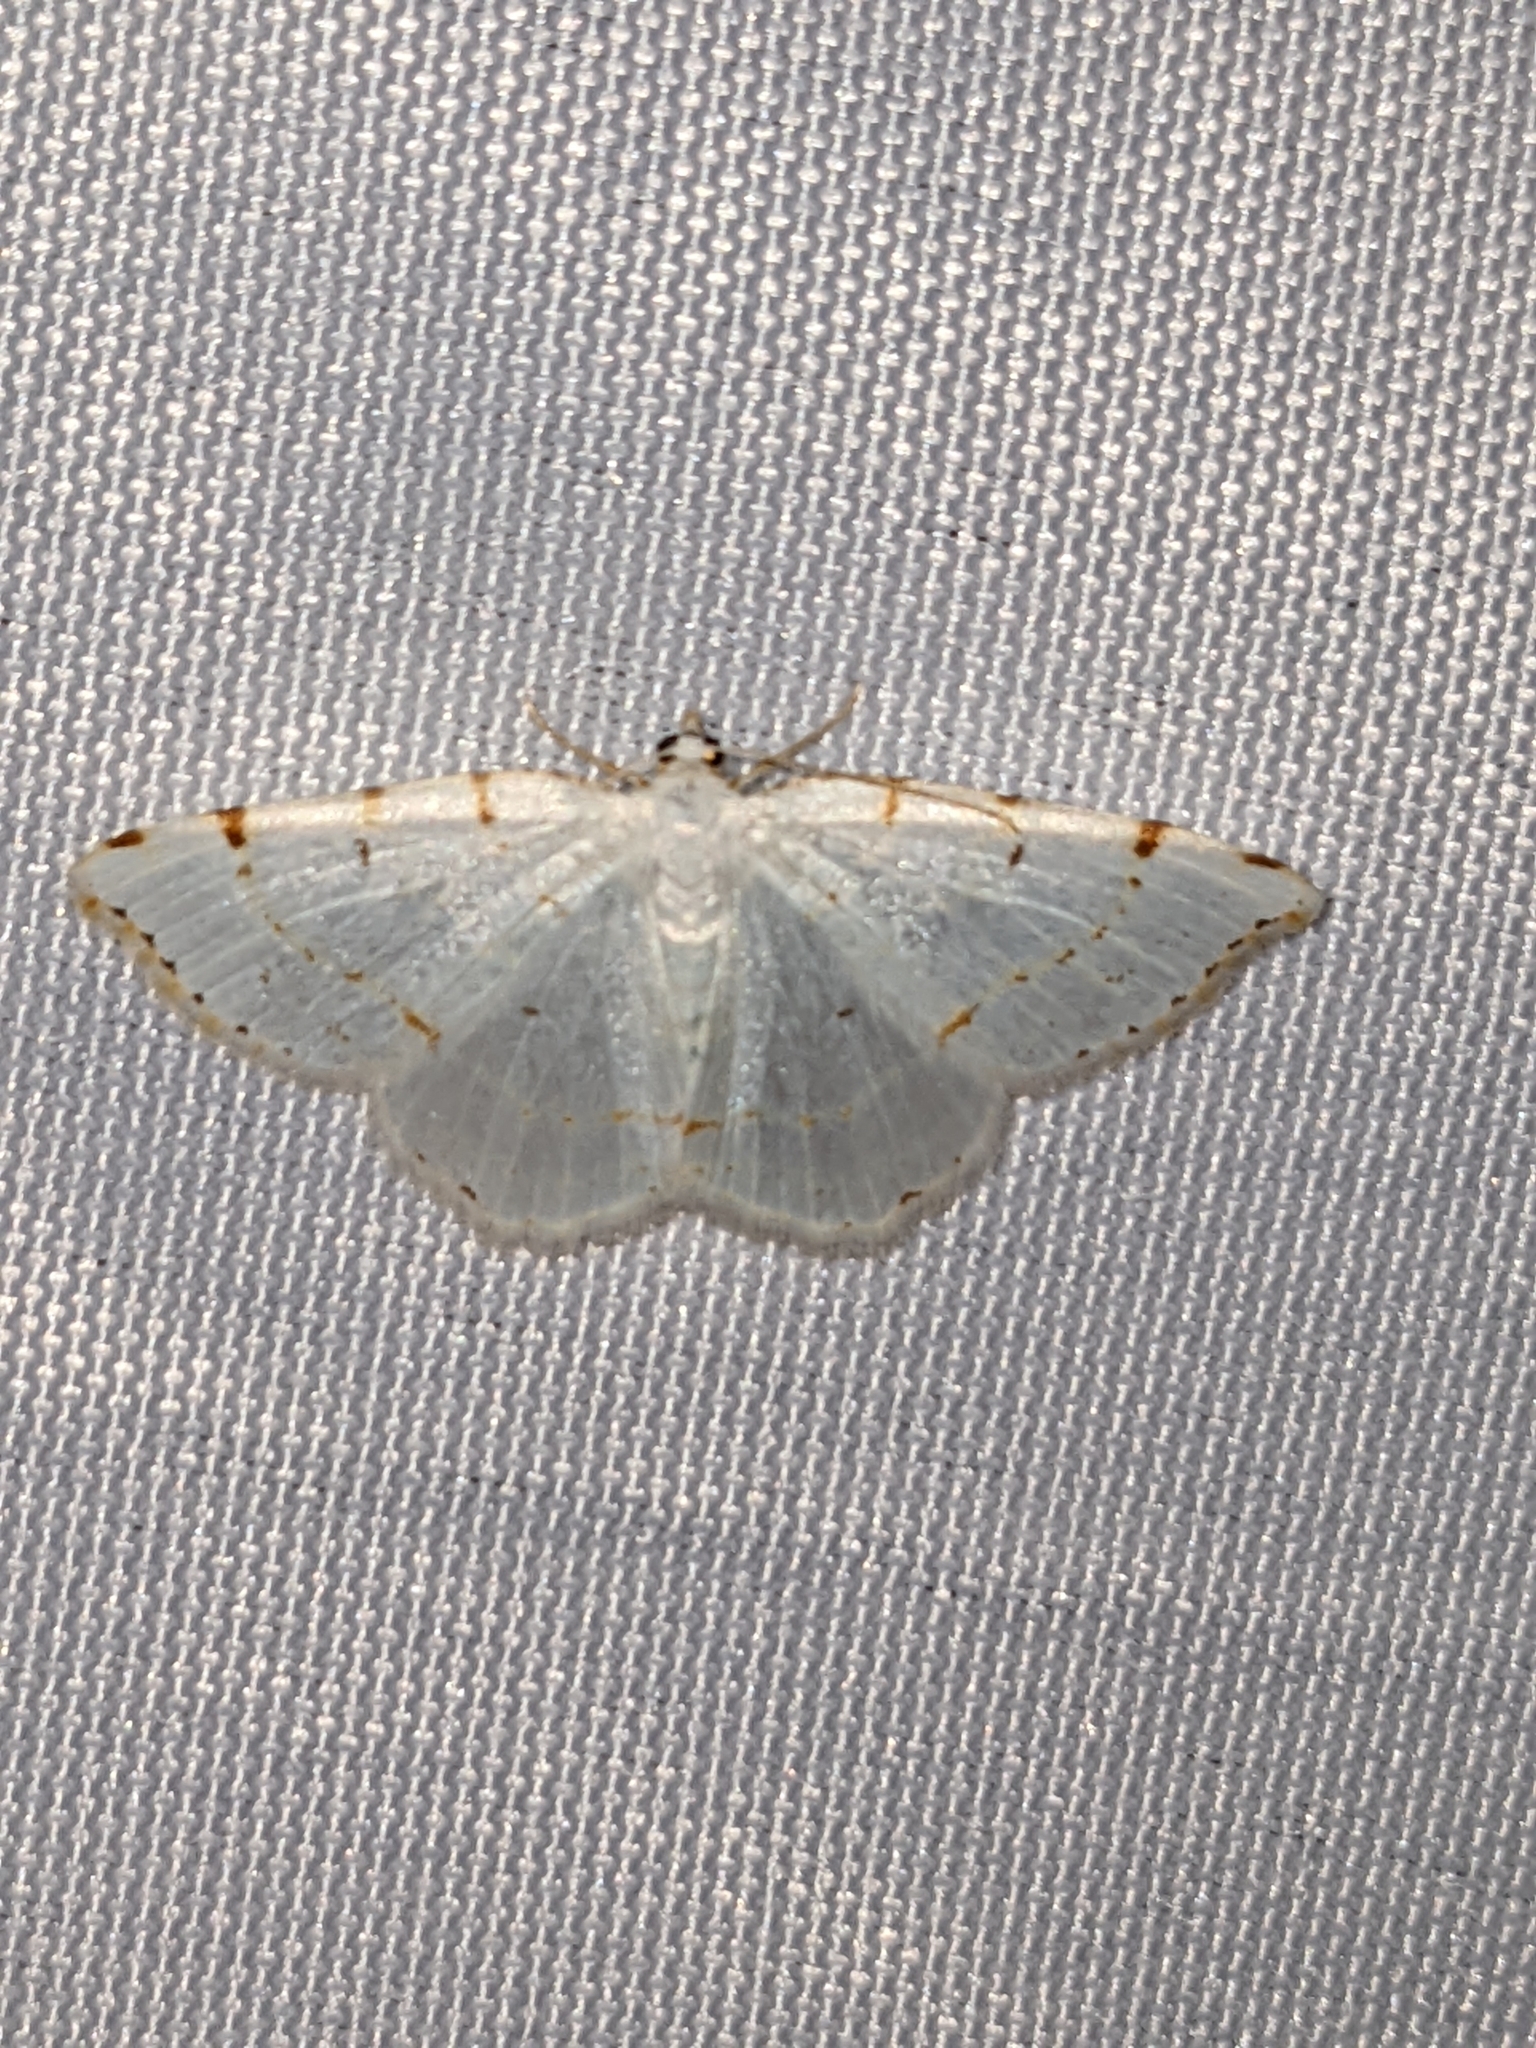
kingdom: Animalia
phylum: Arthropoda
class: Insecta
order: Lepidoptera
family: Geometridae
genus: Macaria
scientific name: Macaria pustularia
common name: Lesser maple spanworm moth
